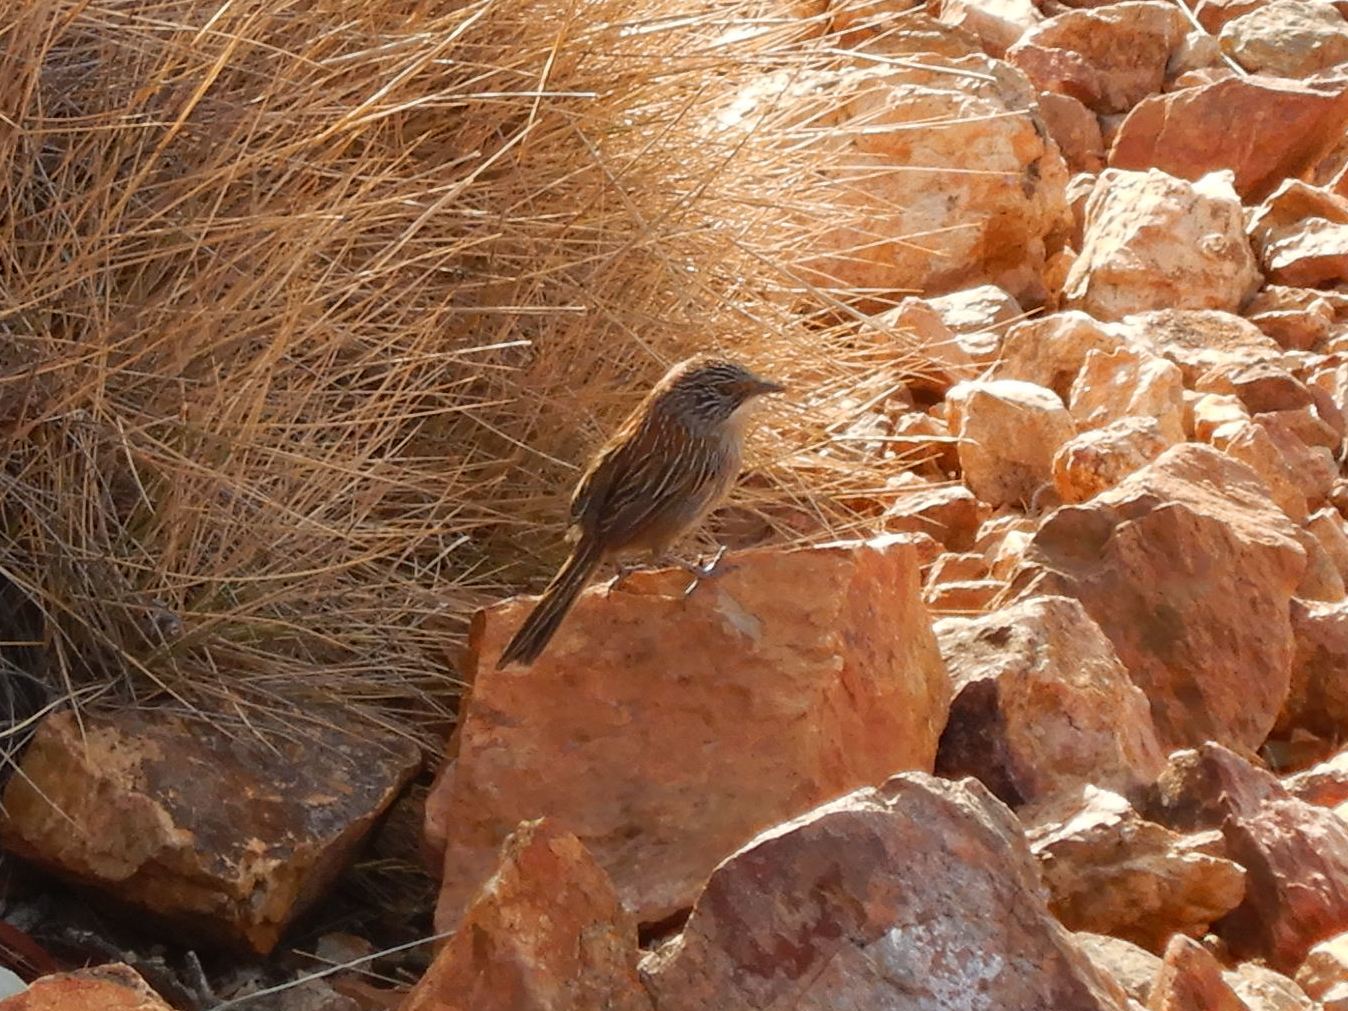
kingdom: Animalia
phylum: Chordata
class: Aves
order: Passeriformes
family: Maluridae
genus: Amytornis
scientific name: Amytornis merrotsyi
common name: Short-tailed grasswren
